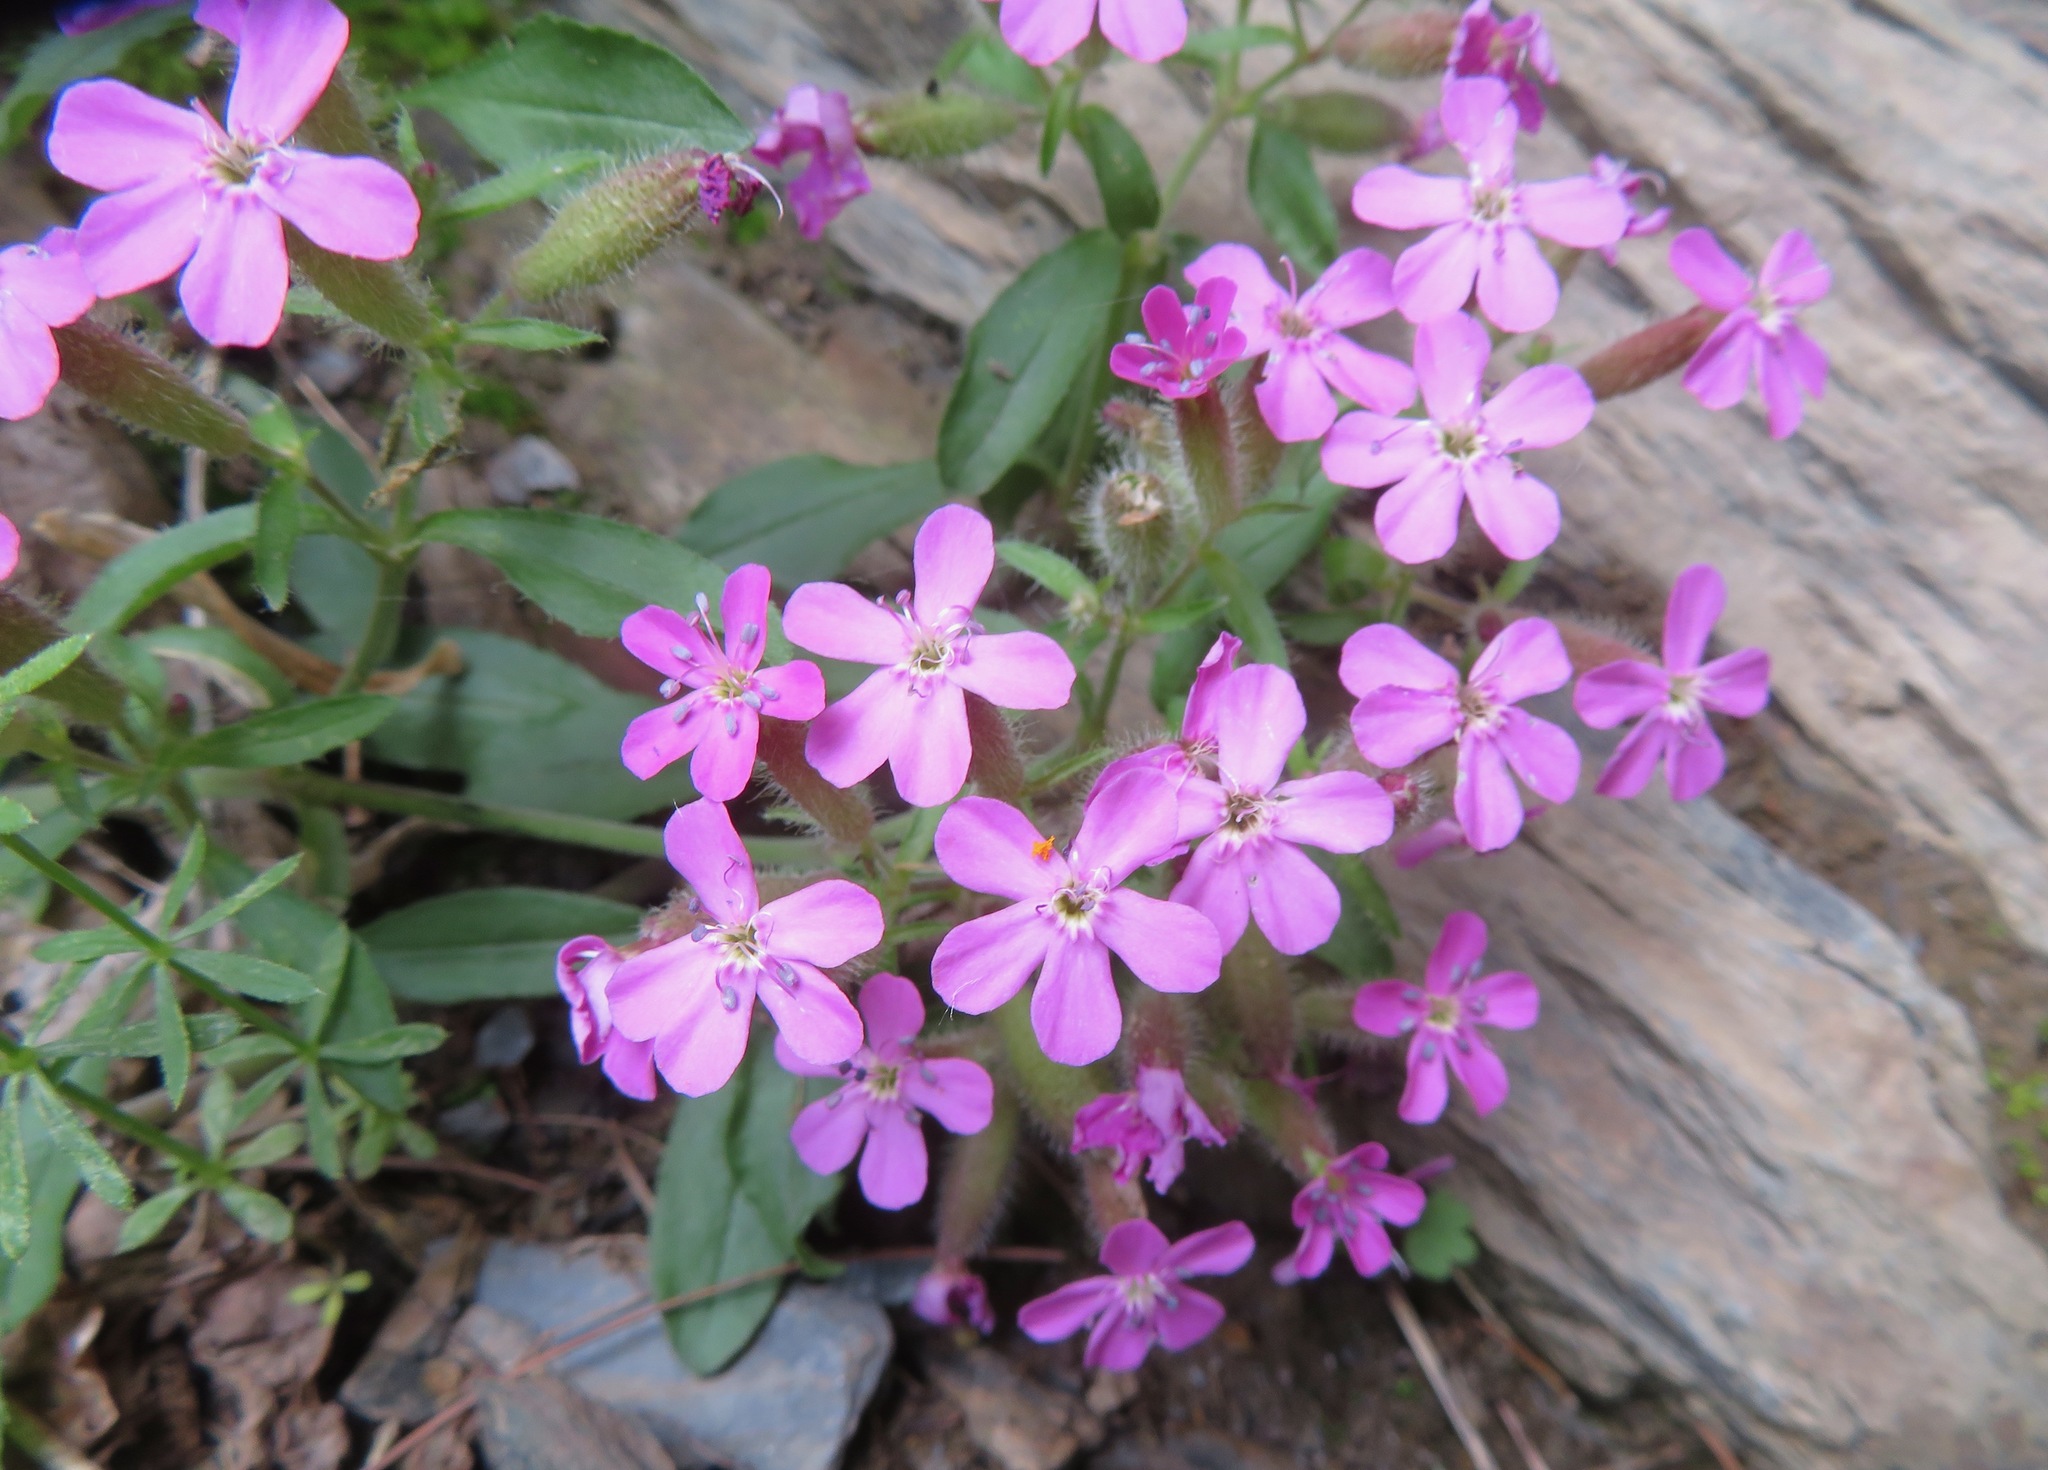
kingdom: Plantae
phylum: Tracheophyta
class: Magnoliopsida
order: Caryophyllales
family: Caryophyllaceae
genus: Saponaria
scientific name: Saponaria ocymoides
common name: Rock soapwort
